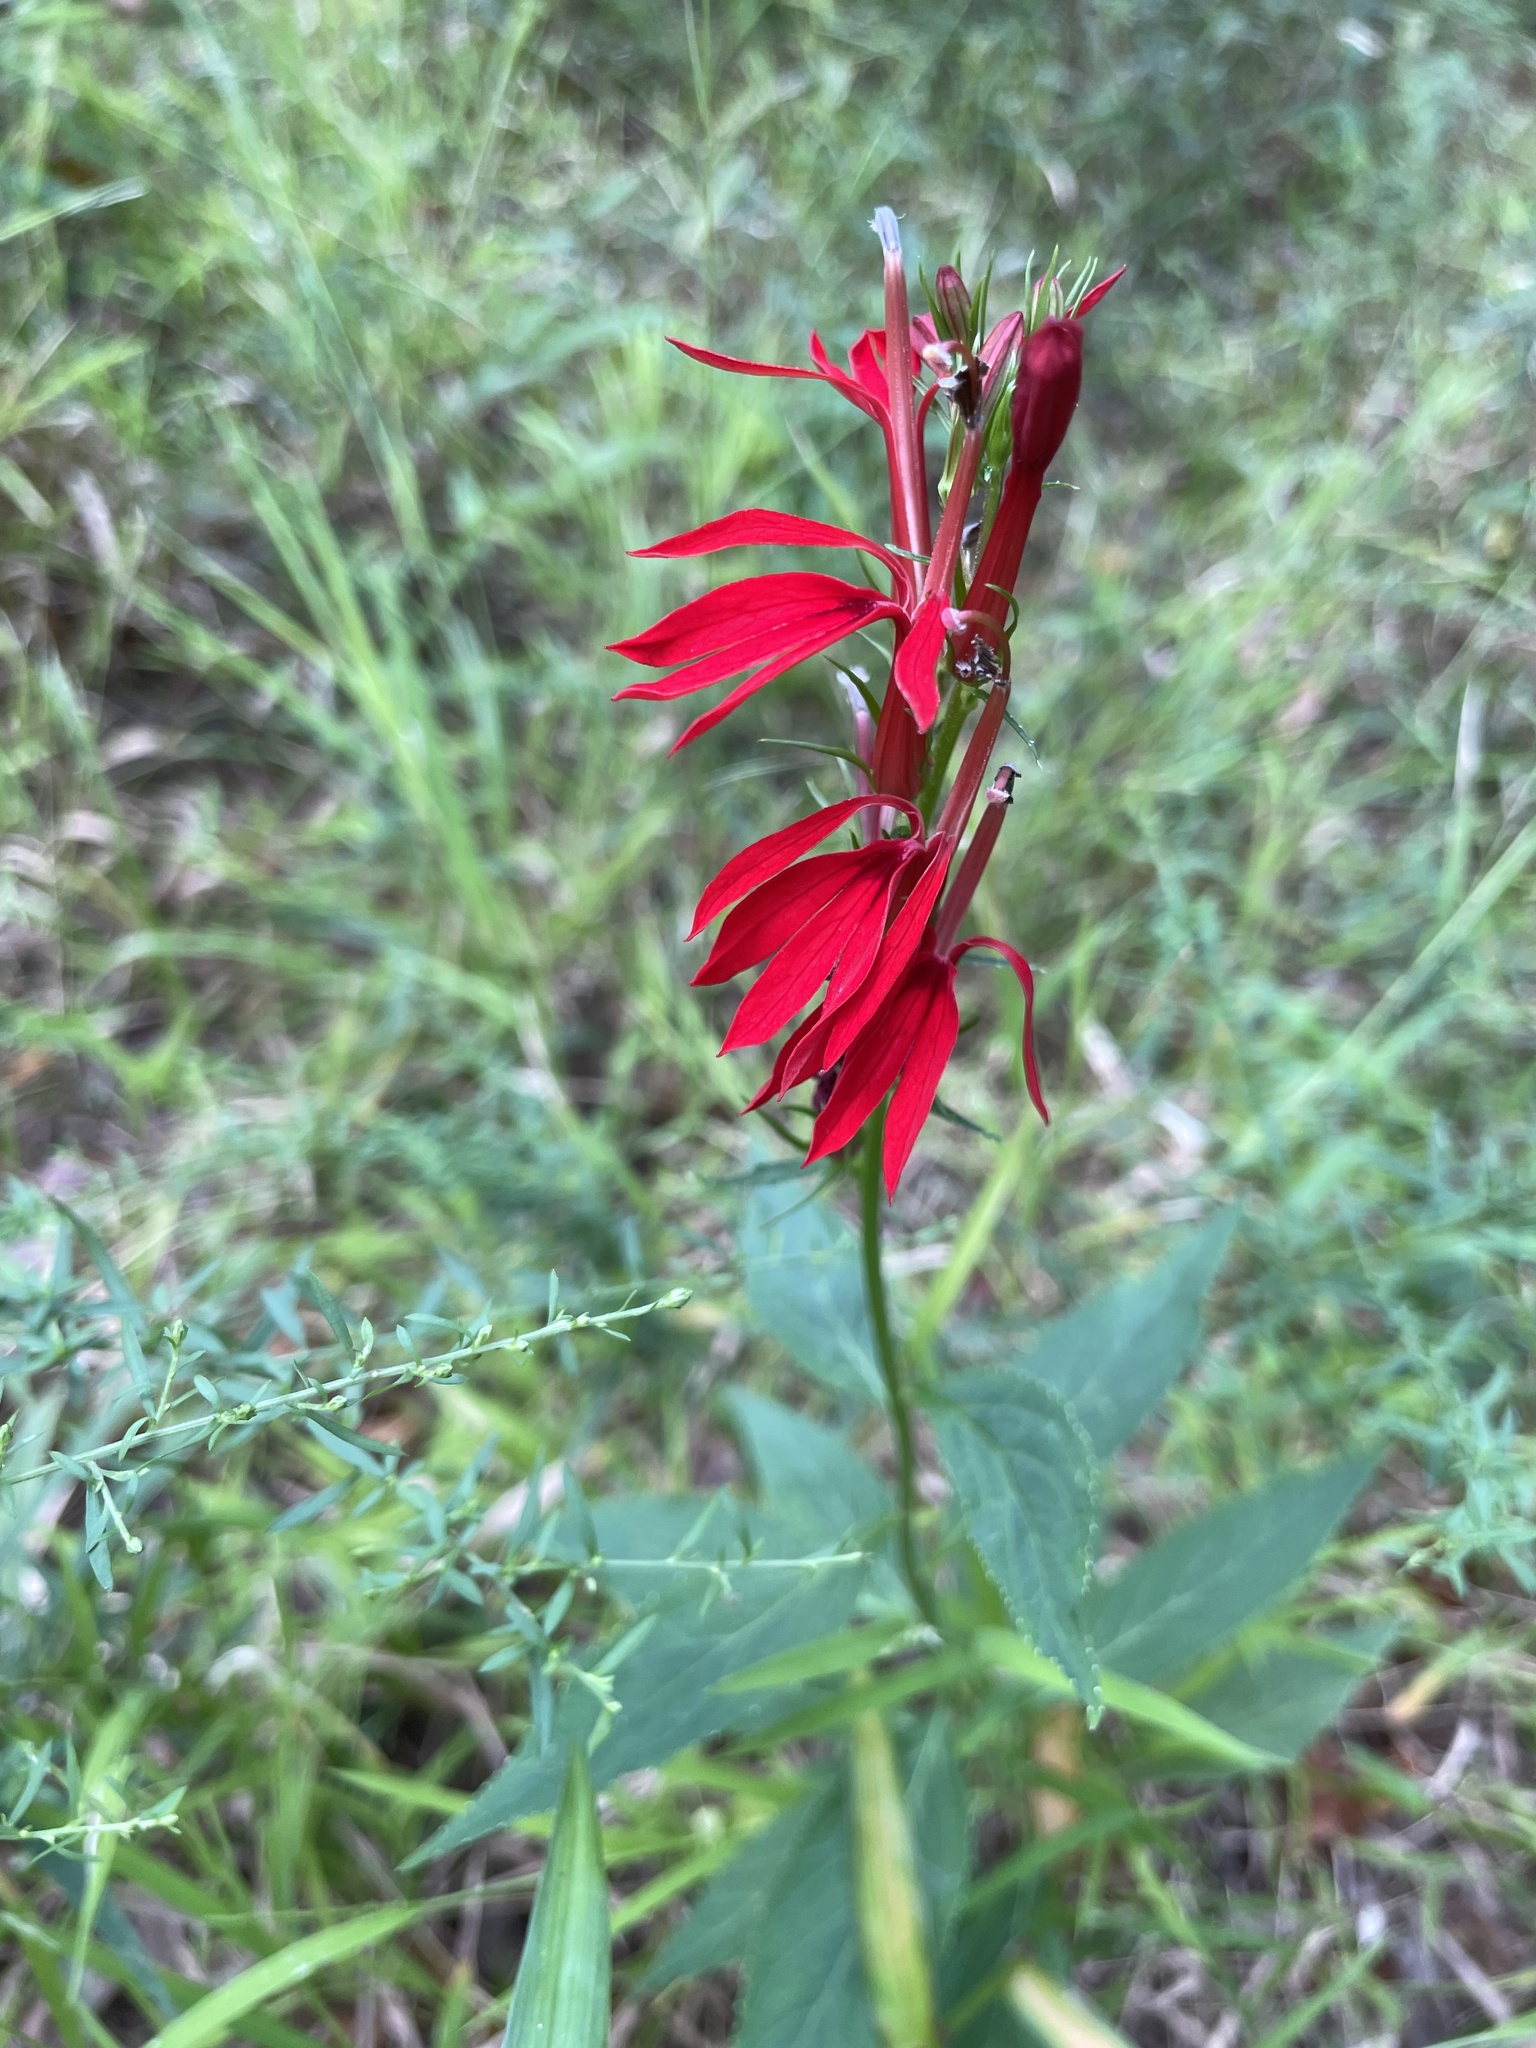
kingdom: Plantae
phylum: Tracheophyta
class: Magnoliopsida
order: Asterales
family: Campanulaceae
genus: Lobelia
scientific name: Lobelia cardinalis
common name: Cardinal flower
